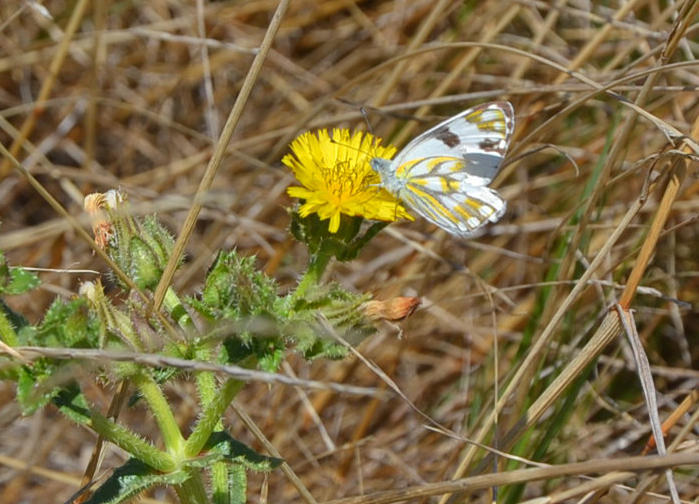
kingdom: Plantae
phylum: Tracheophyta
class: Magnoliopsida
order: Asterales
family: Asteraceae
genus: Helminthotheca
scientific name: Helminthotheca echioides
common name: Ox-tongue
